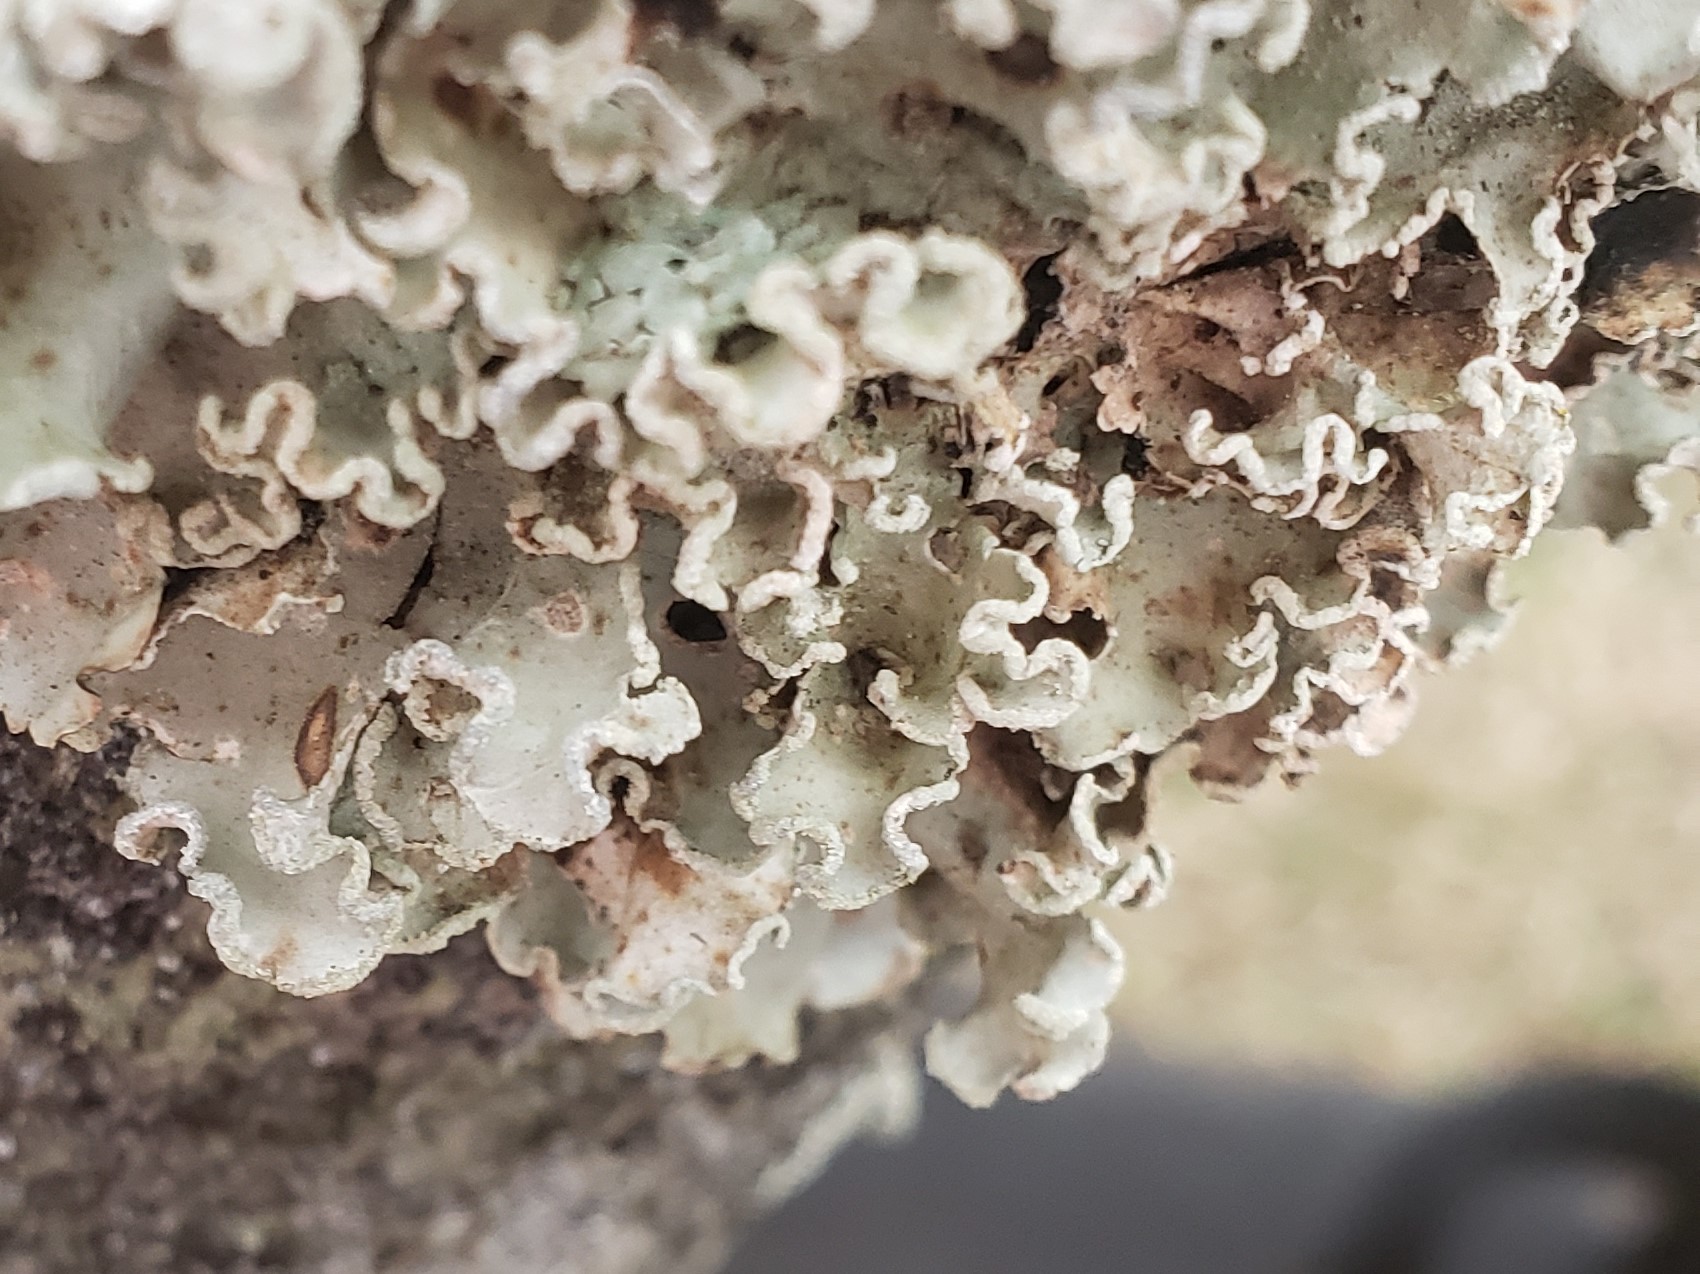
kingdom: Fungi
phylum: Ascomycota
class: Lecanoromycetes
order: Lecanorales
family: Parmeliaceae
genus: Parmotrema
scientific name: Parmotrema austrosinense
